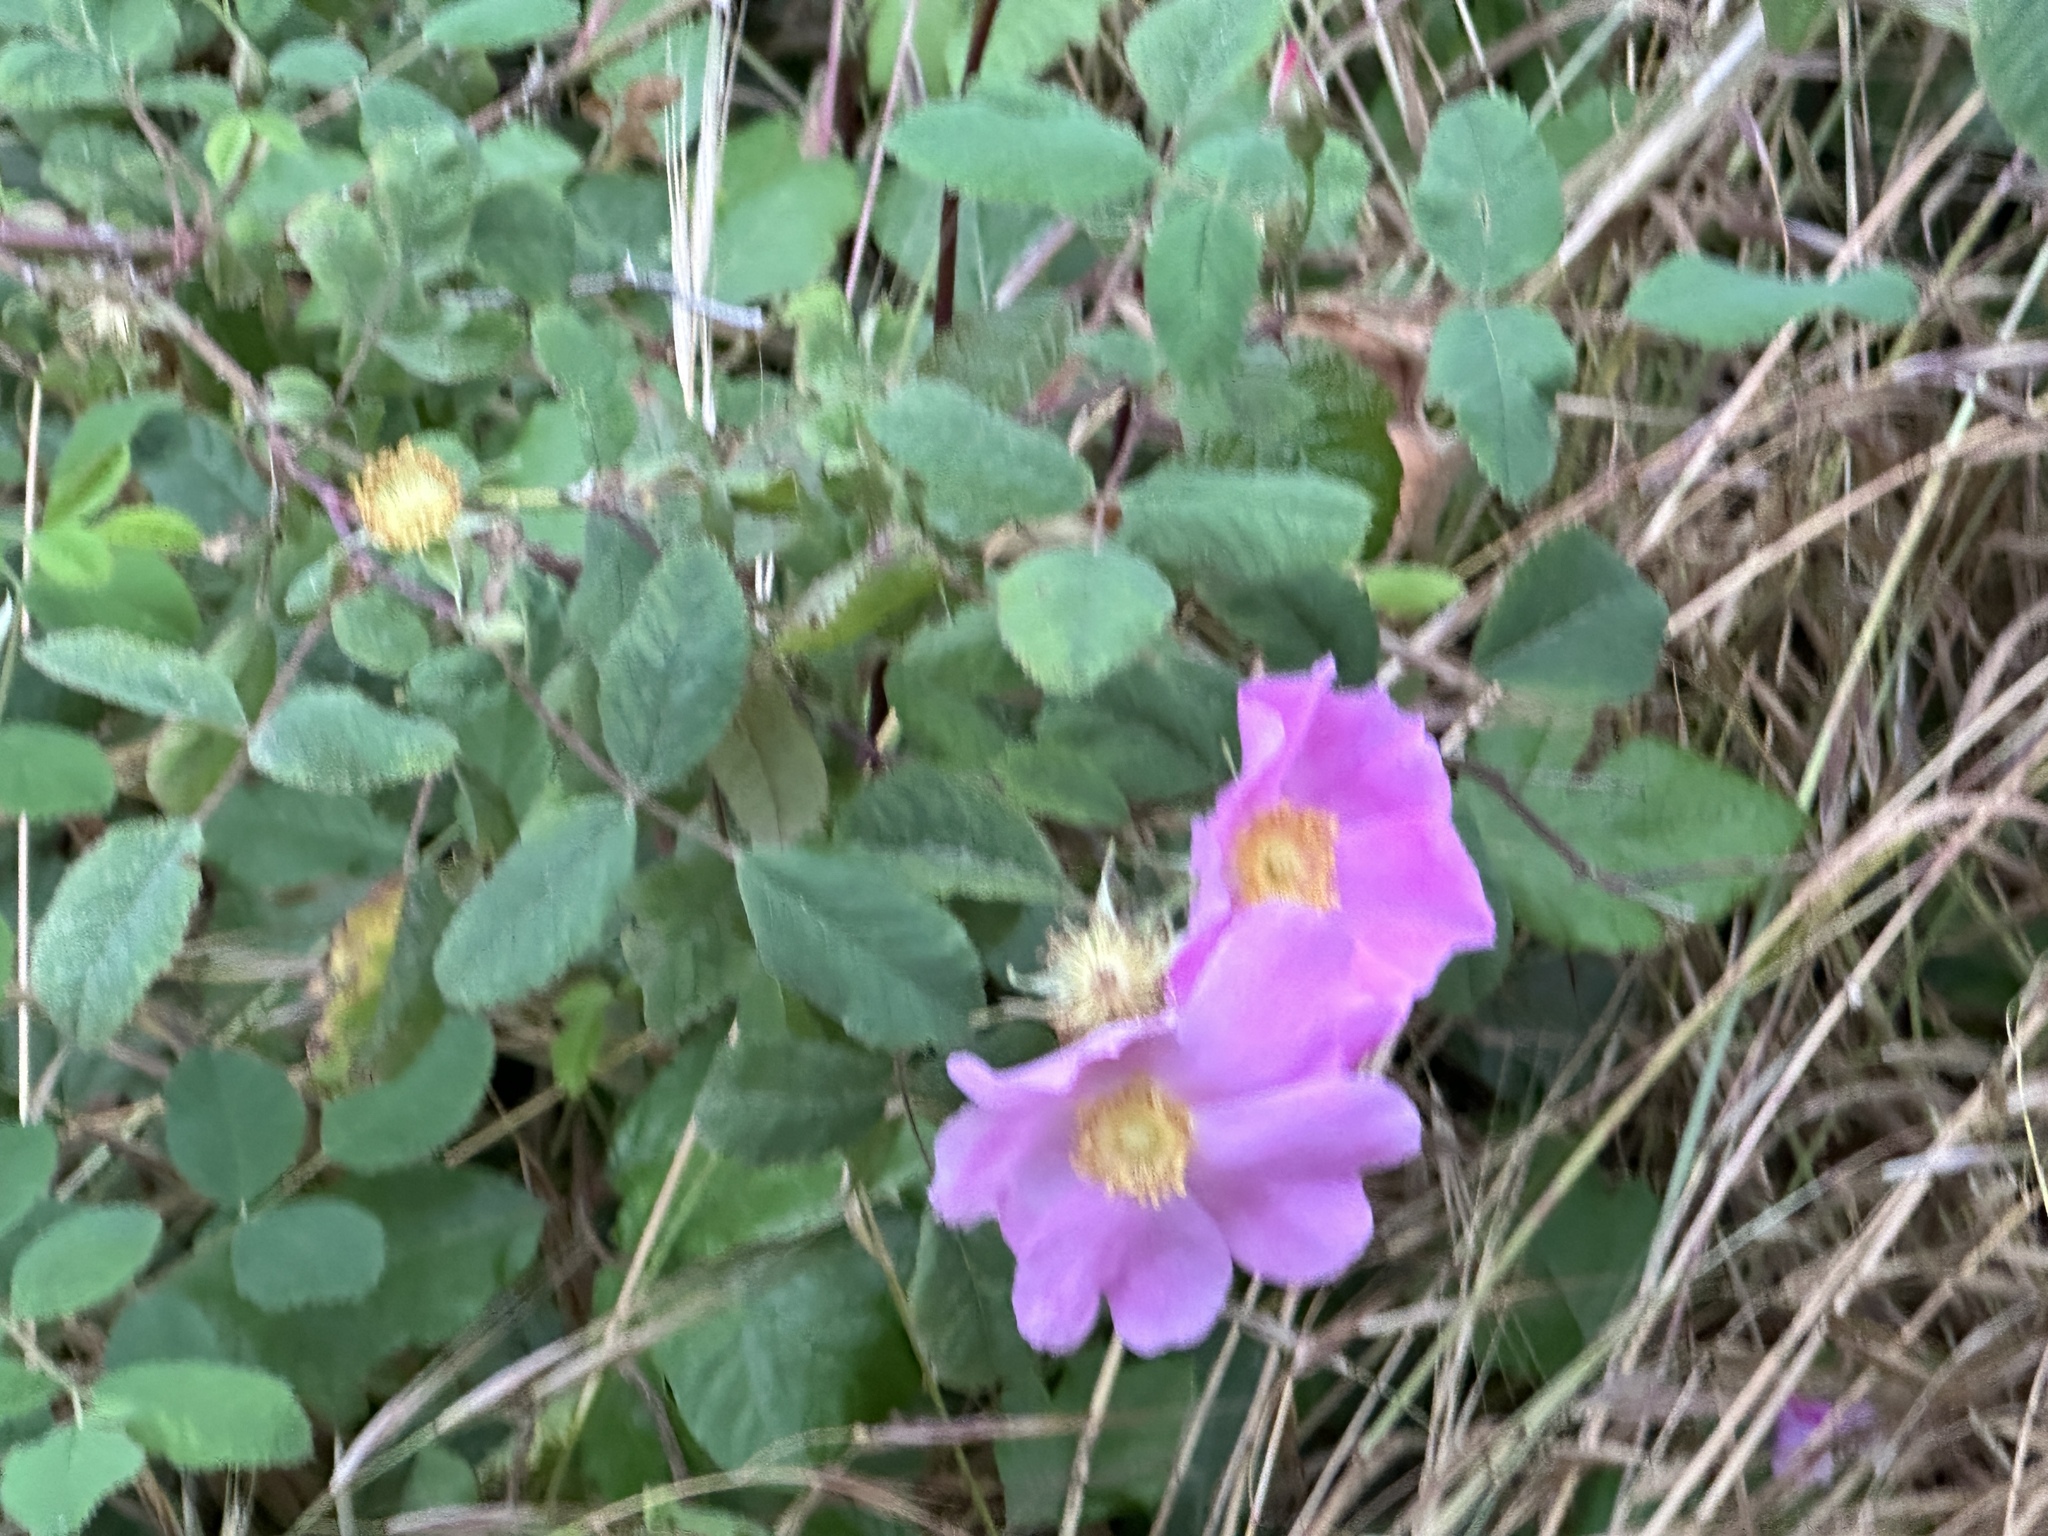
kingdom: Plantae
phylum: Tracheophyta
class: Magnoliopsida
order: Rosales
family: Rosaceae
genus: Rosa
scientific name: Rosa californica
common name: California rose
